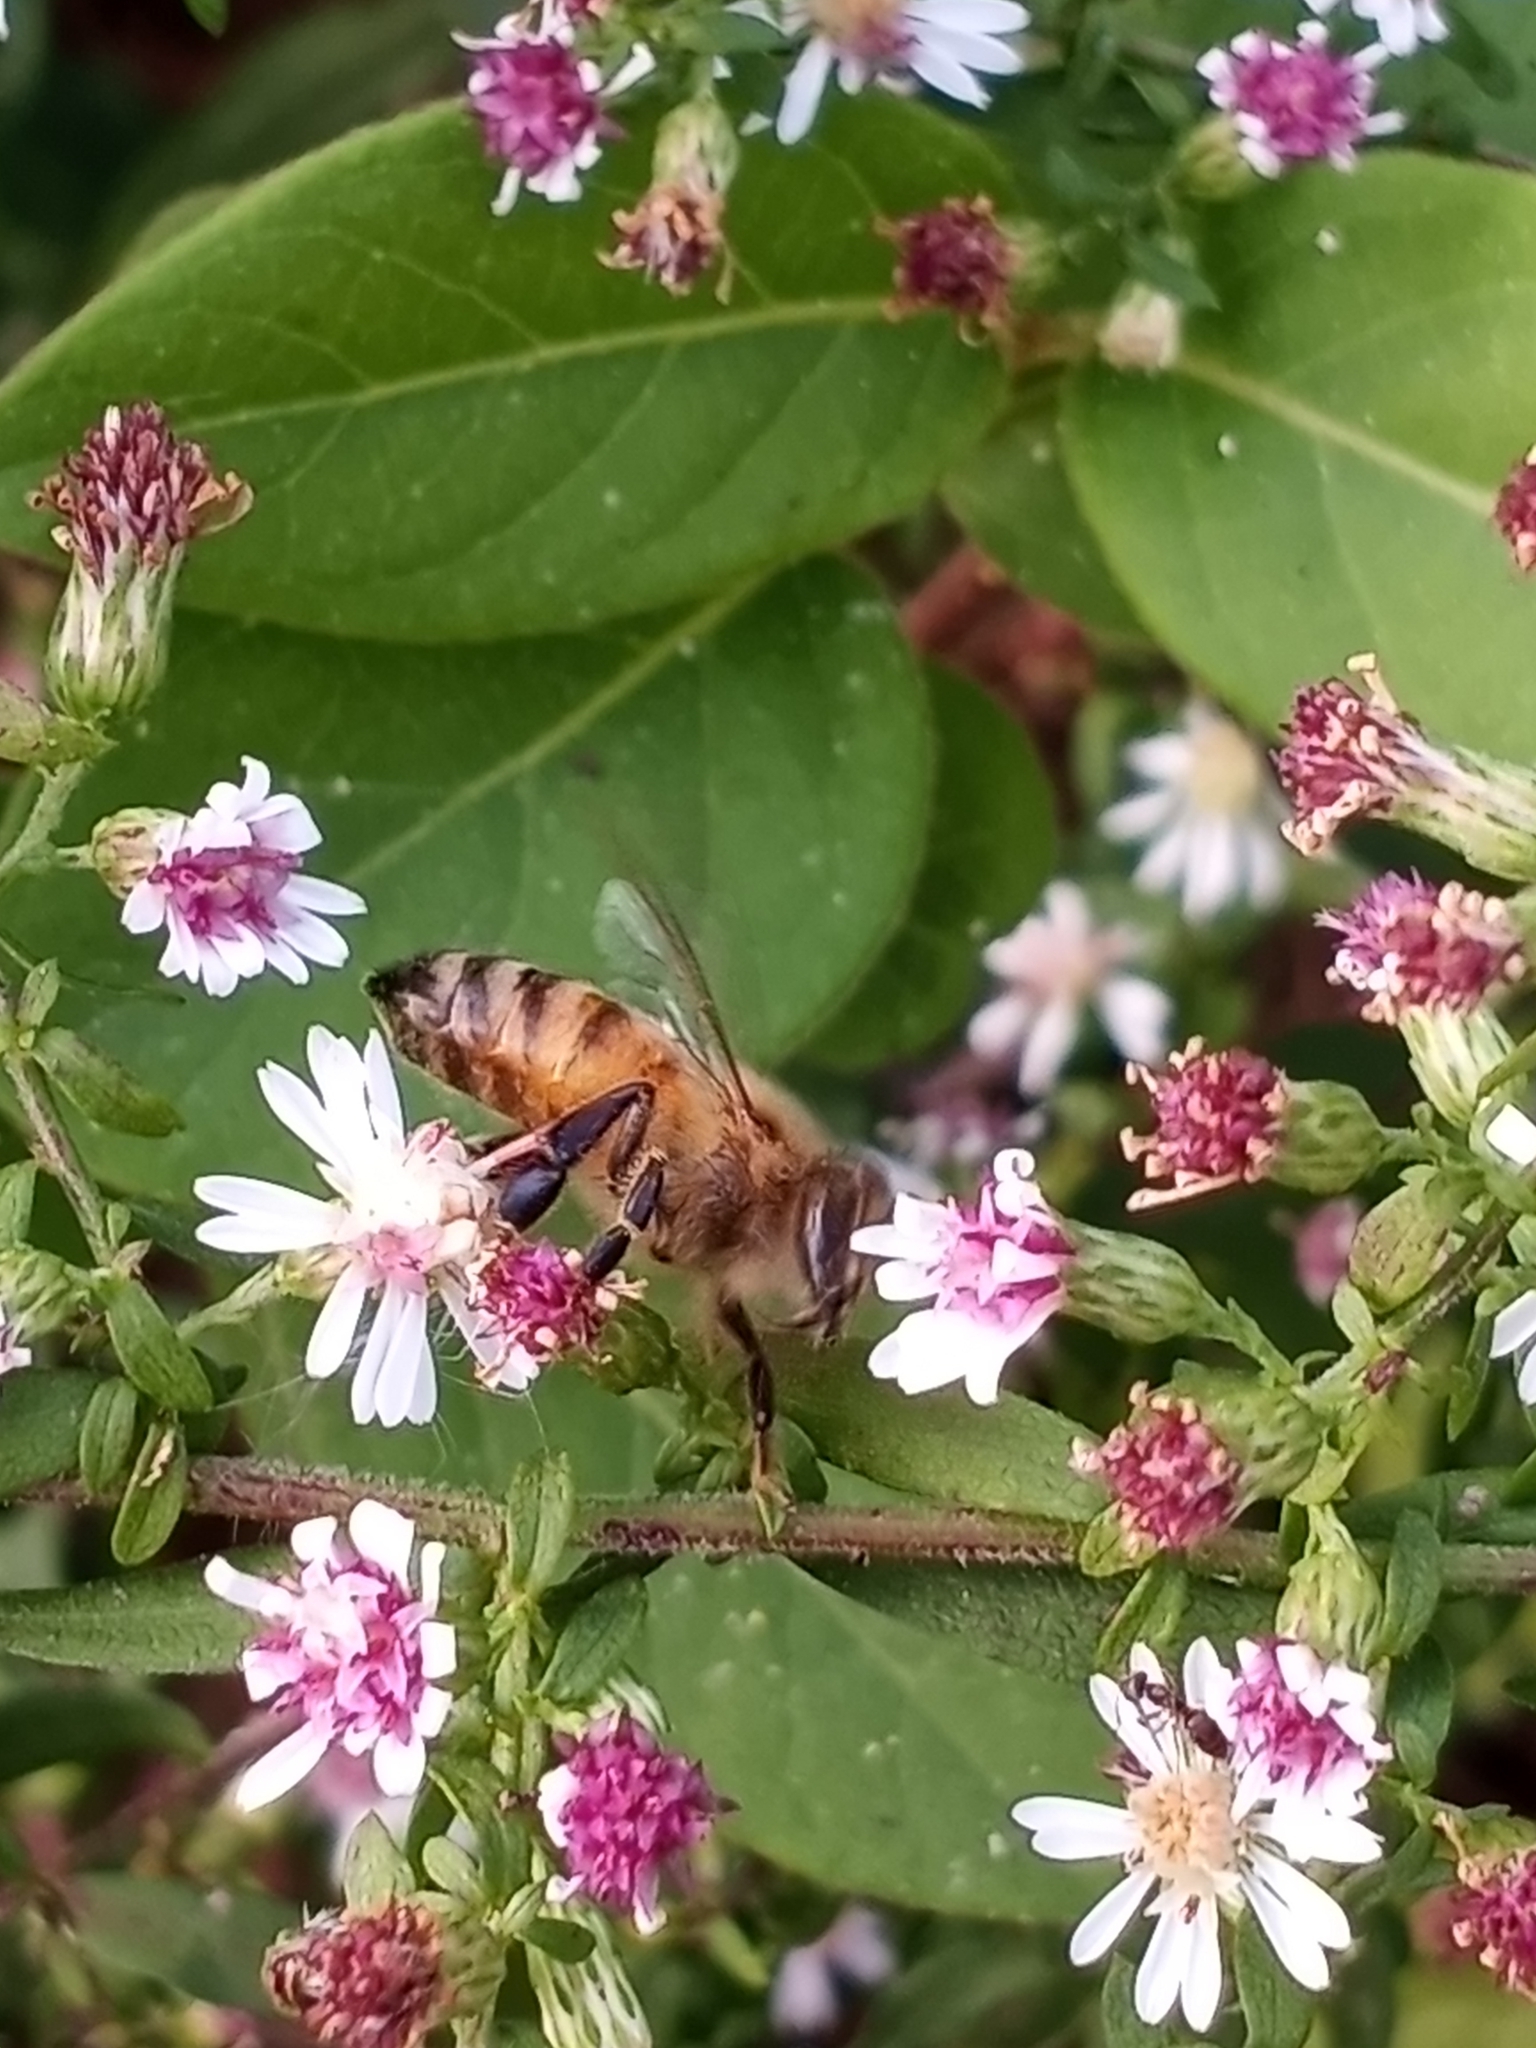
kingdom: Animalia
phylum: Arthropoda
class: Insecta
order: Hymenoptera
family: Apidae
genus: Apis
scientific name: Apis mellifera
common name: Honey bee
